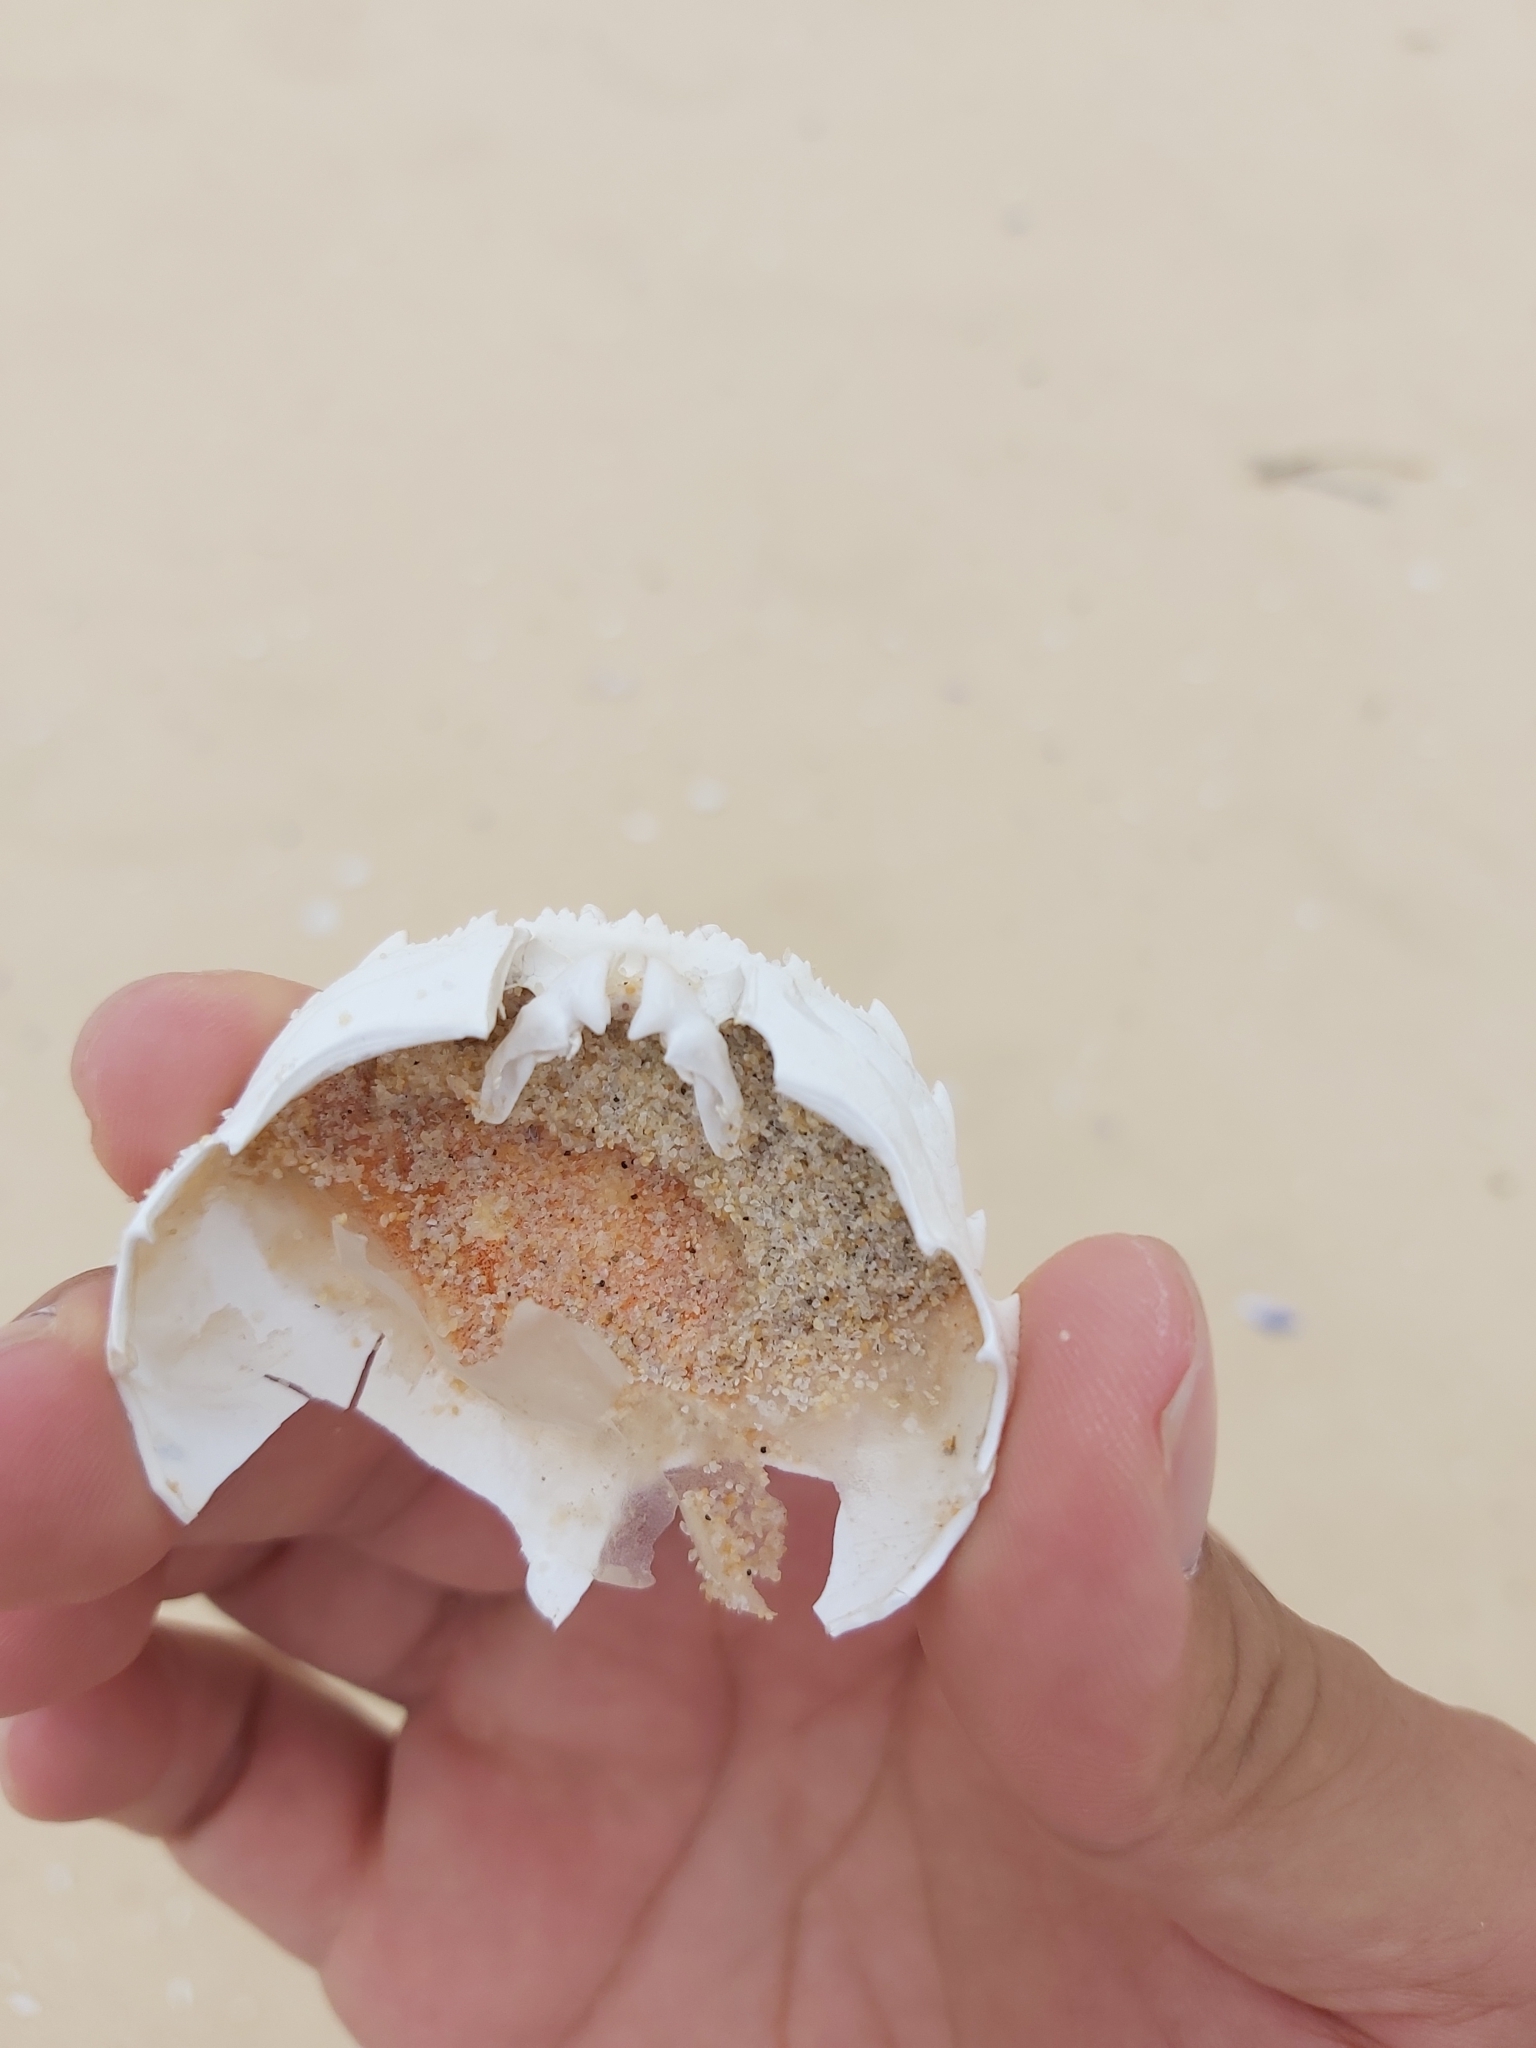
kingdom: Animalia
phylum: Arthropoda
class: Malacostraca
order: Decapoda
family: Plagusiidae
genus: Guinusia
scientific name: Guinusia chabrus
